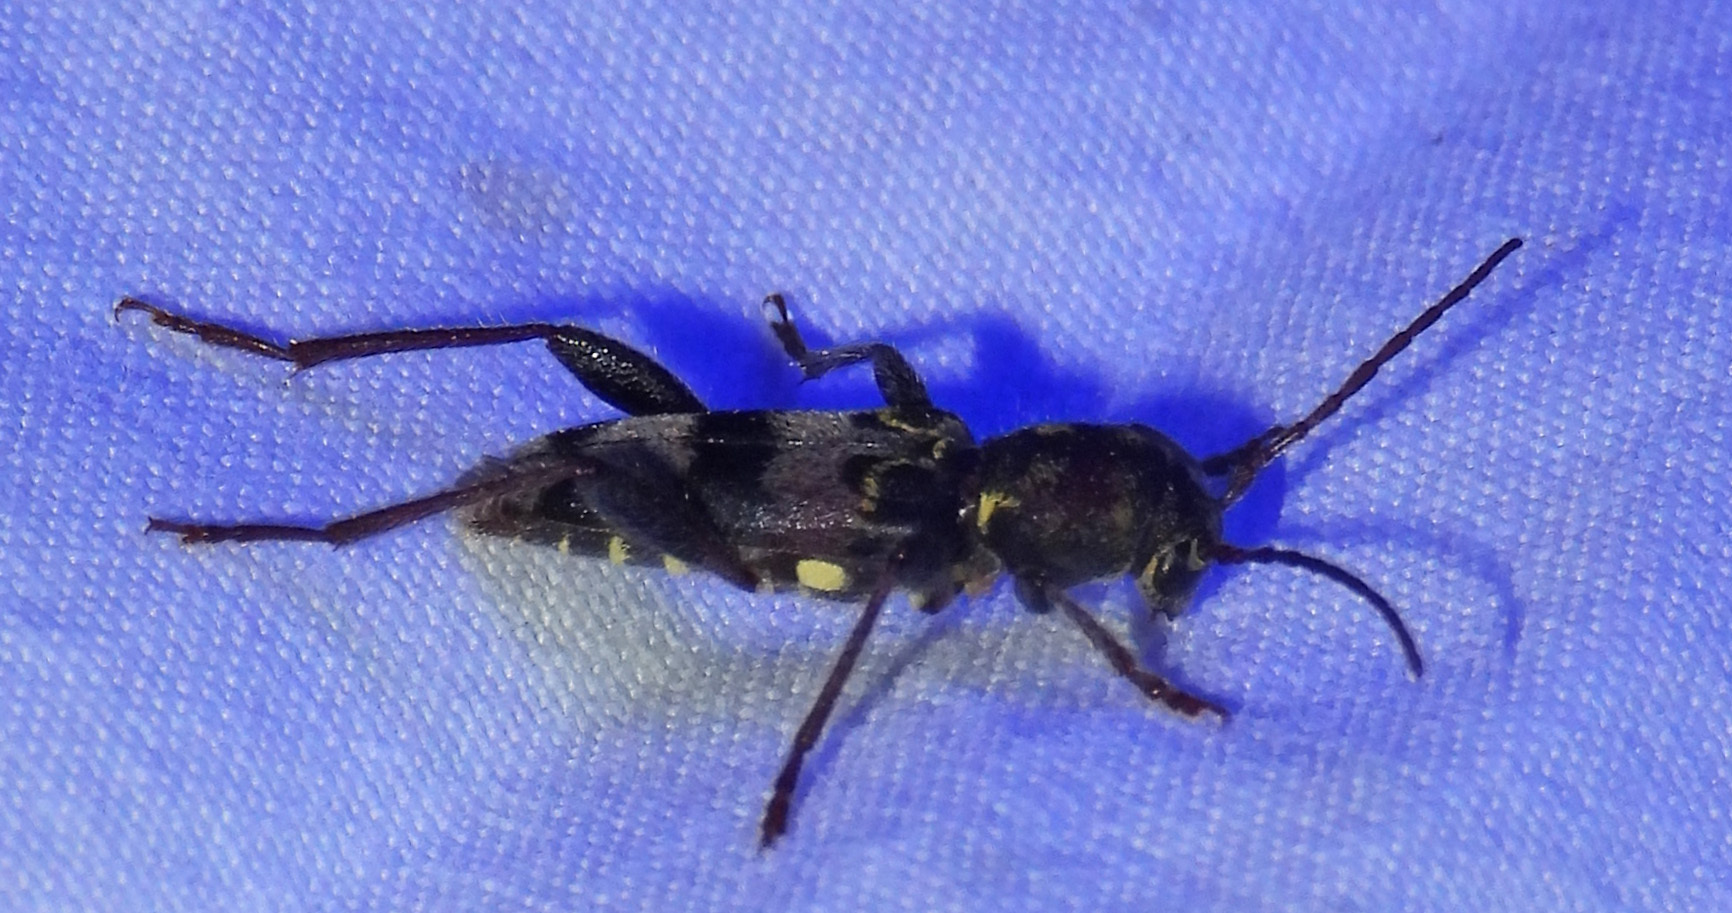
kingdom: Animalia
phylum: Arthropoda
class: Insecta
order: Coleoptera
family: Cerambycidae
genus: Xylotrechus
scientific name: Xylotrechus colonus
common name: Long-horned beetle
